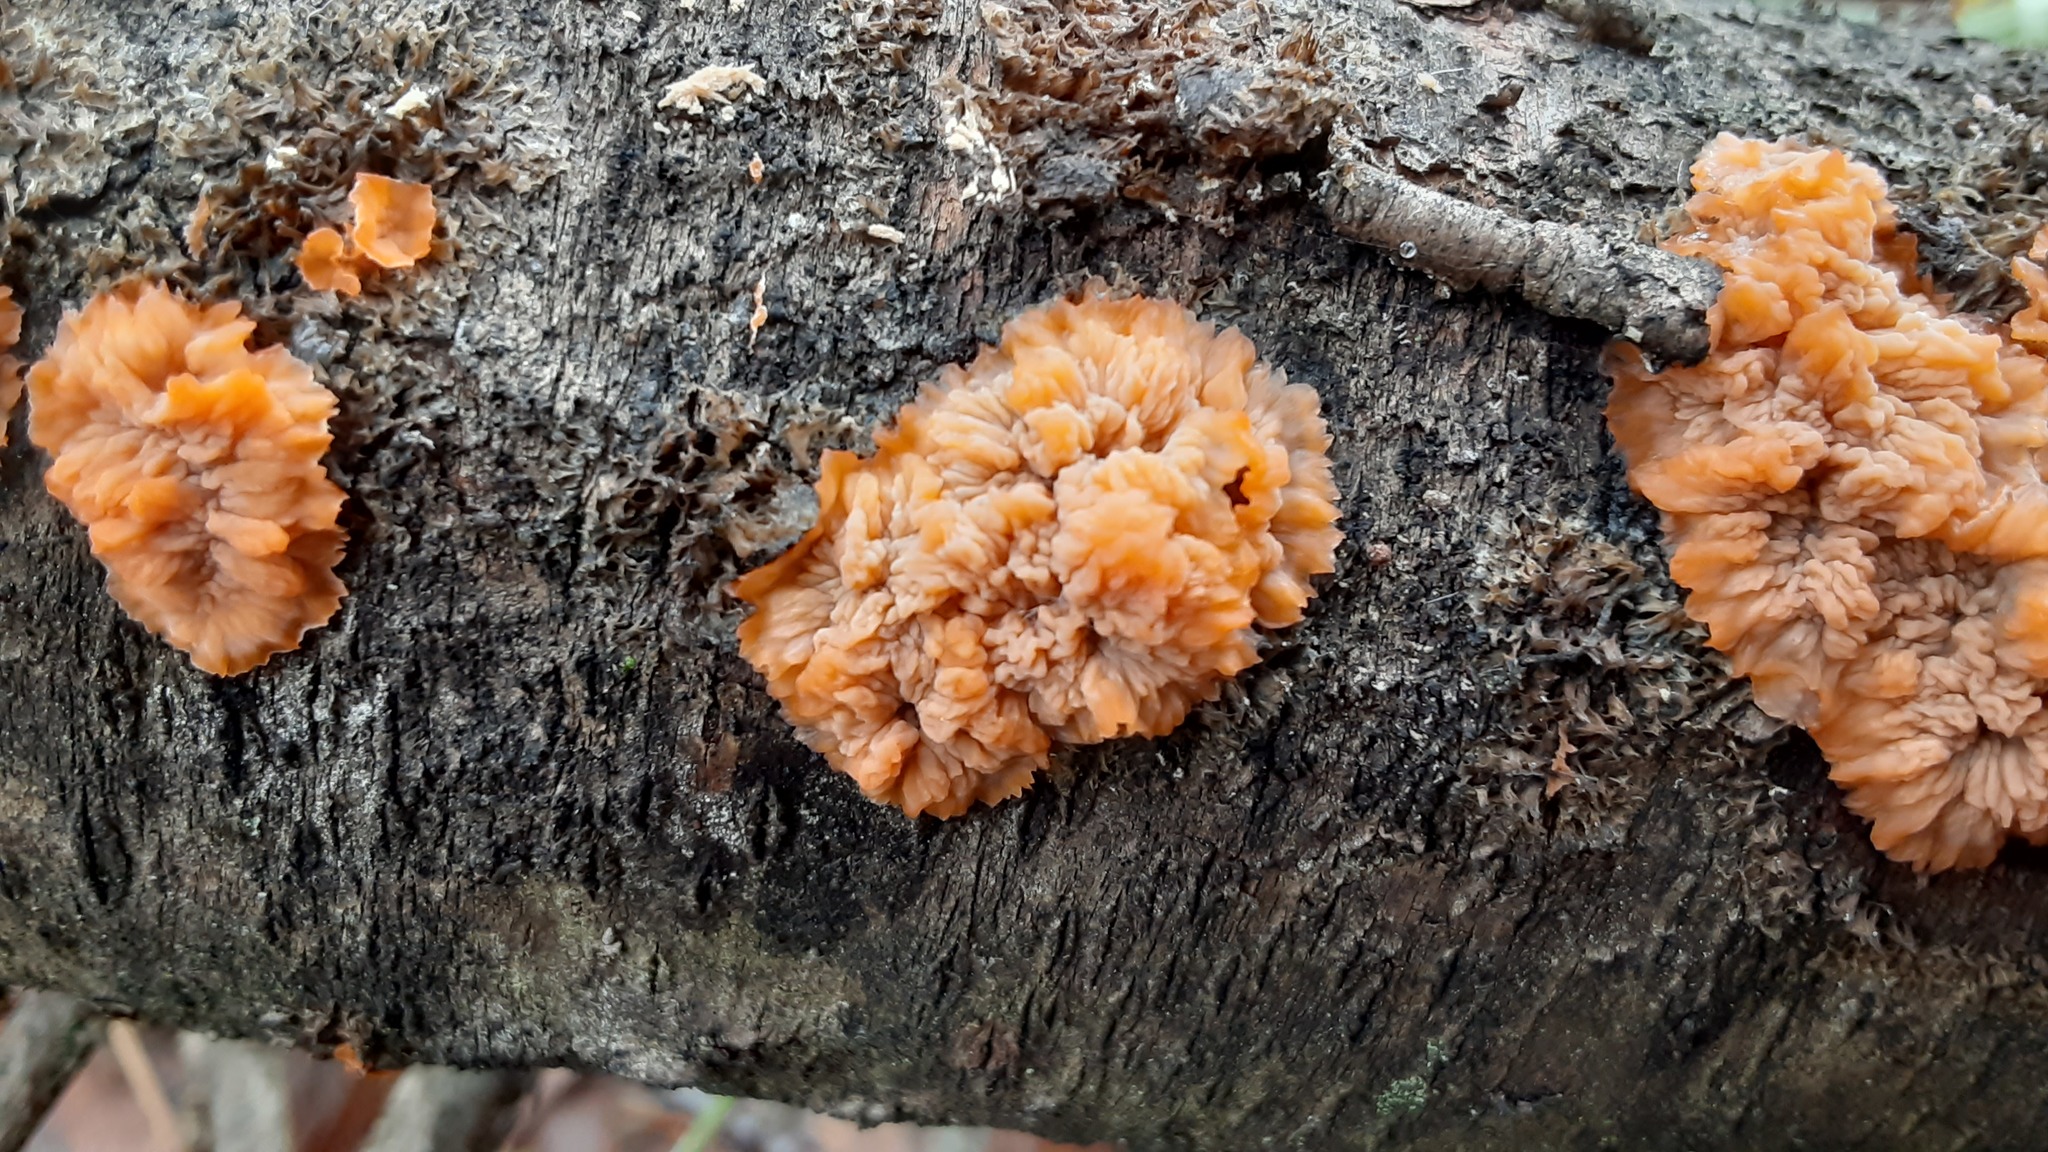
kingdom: Fungi
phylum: Basidiomycota
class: Agaricomycetes
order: Polyporales
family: Meruliaceae
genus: Phlebia
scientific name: Phlebia radiata
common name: Wrinkled crust
